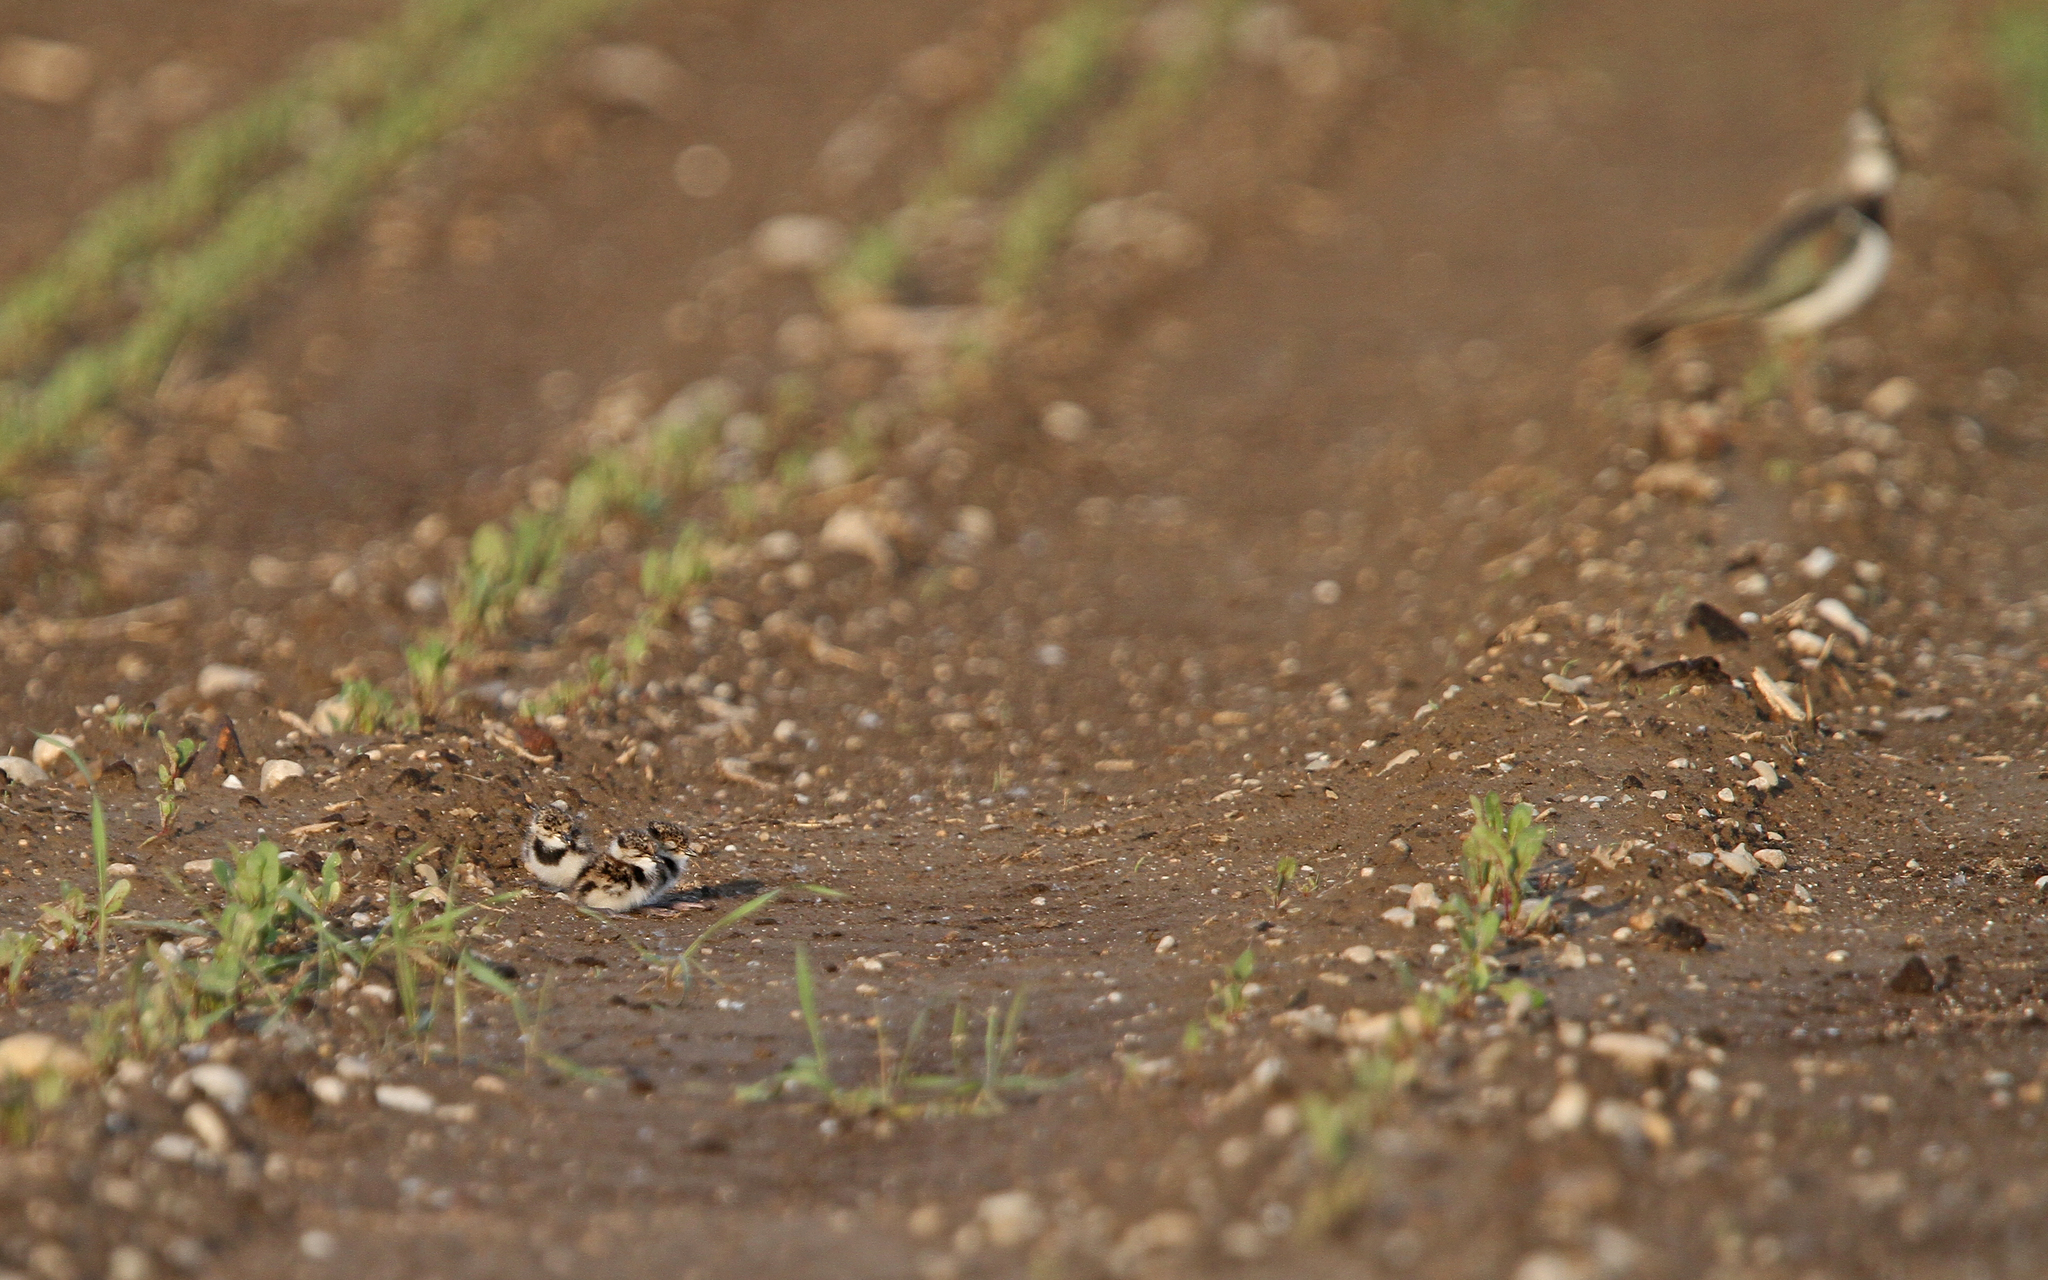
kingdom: Animalia
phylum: Chordata
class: Aves
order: Charadriiformes
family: Charadriidae
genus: Vanellus
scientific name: Vanellus vanellus
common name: Northern lapwing
